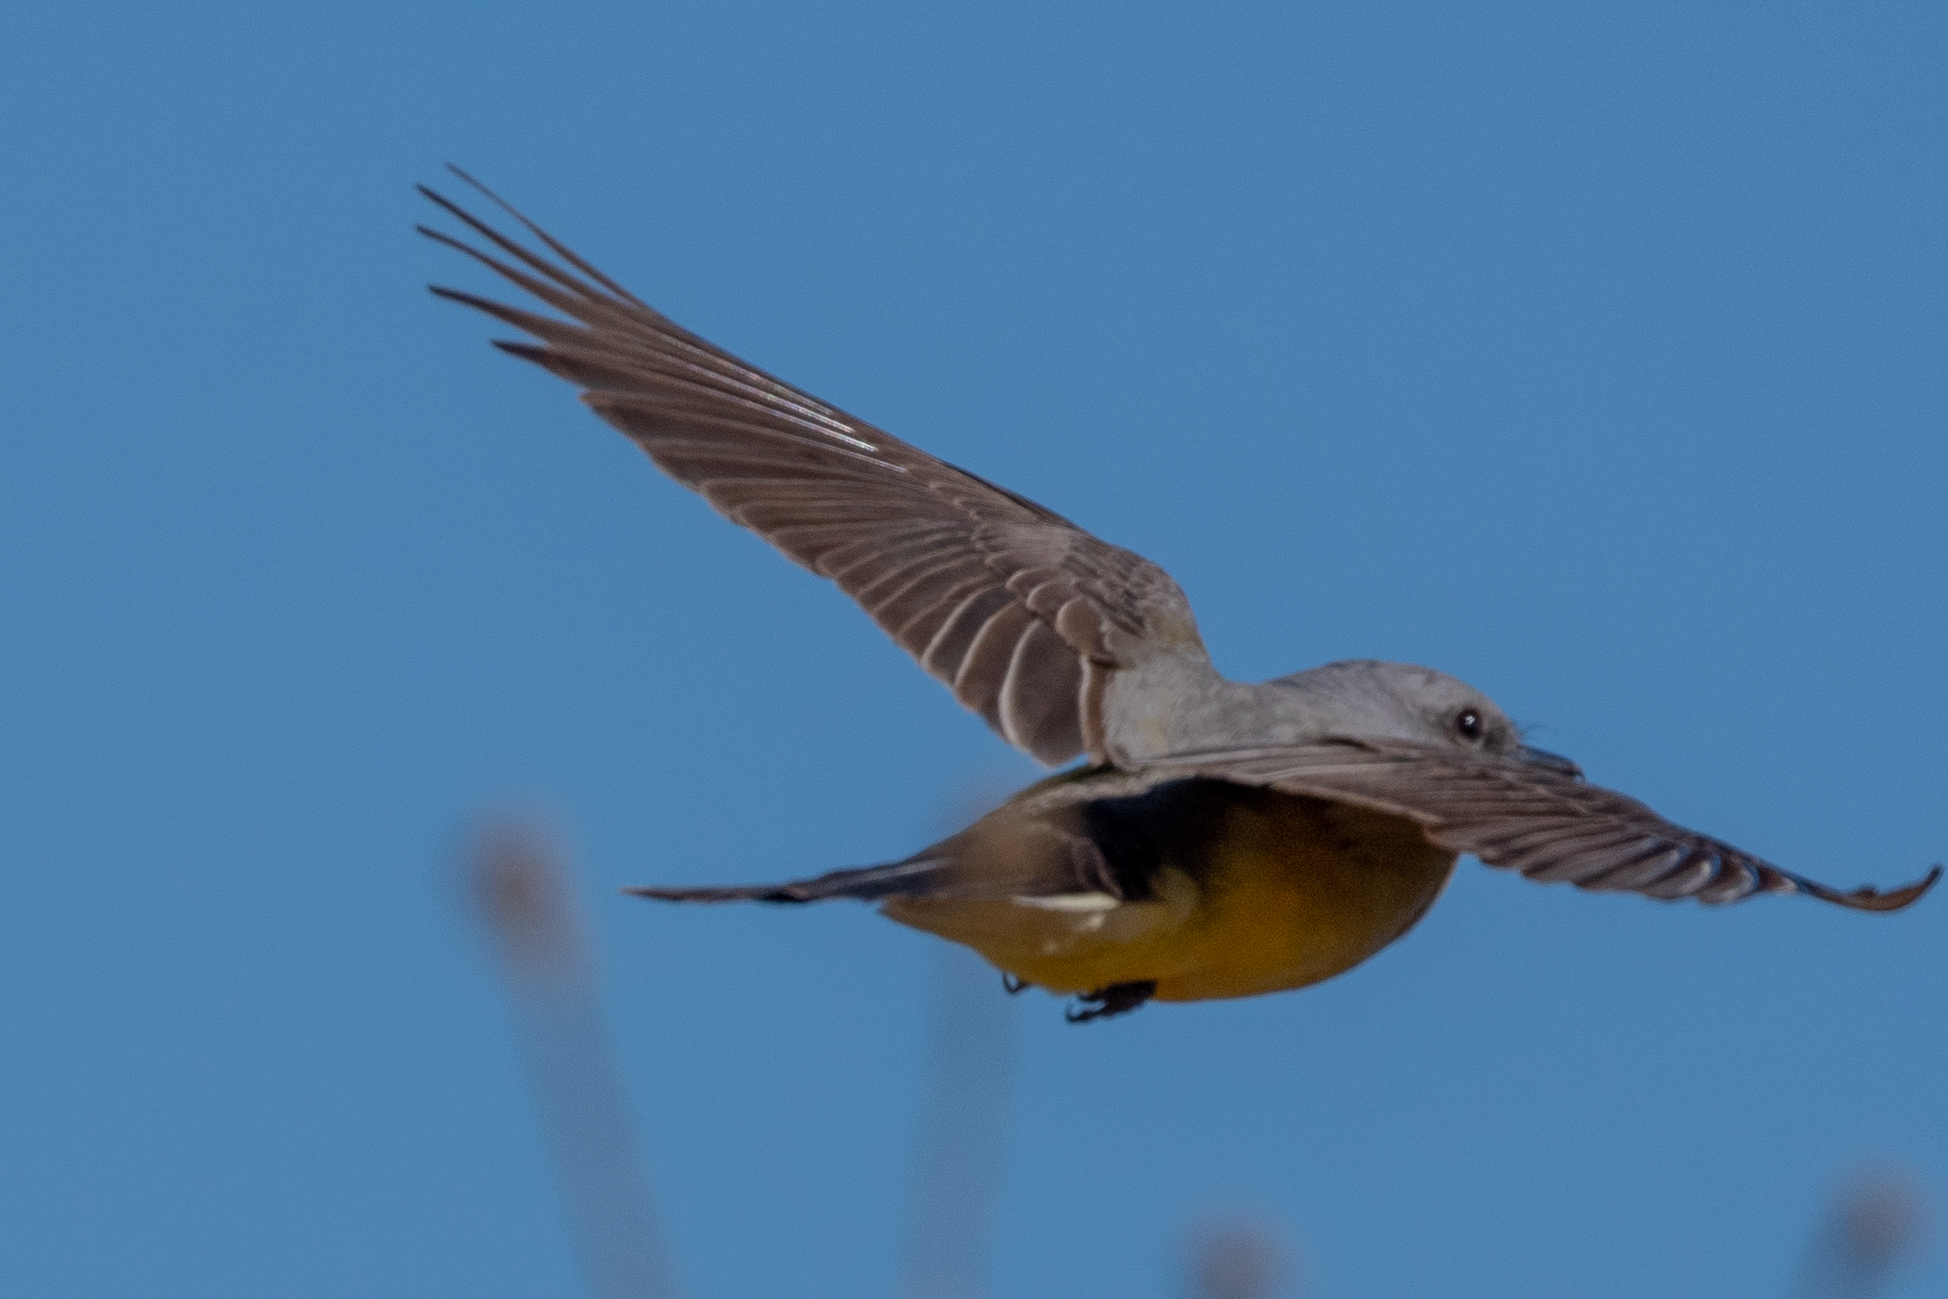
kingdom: Animalia
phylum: Chordata
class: Aves
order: Passeriformes
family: Tyrannidae
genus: Tyrannus
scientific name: Tyrannus verticalis
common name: Western kingbird
